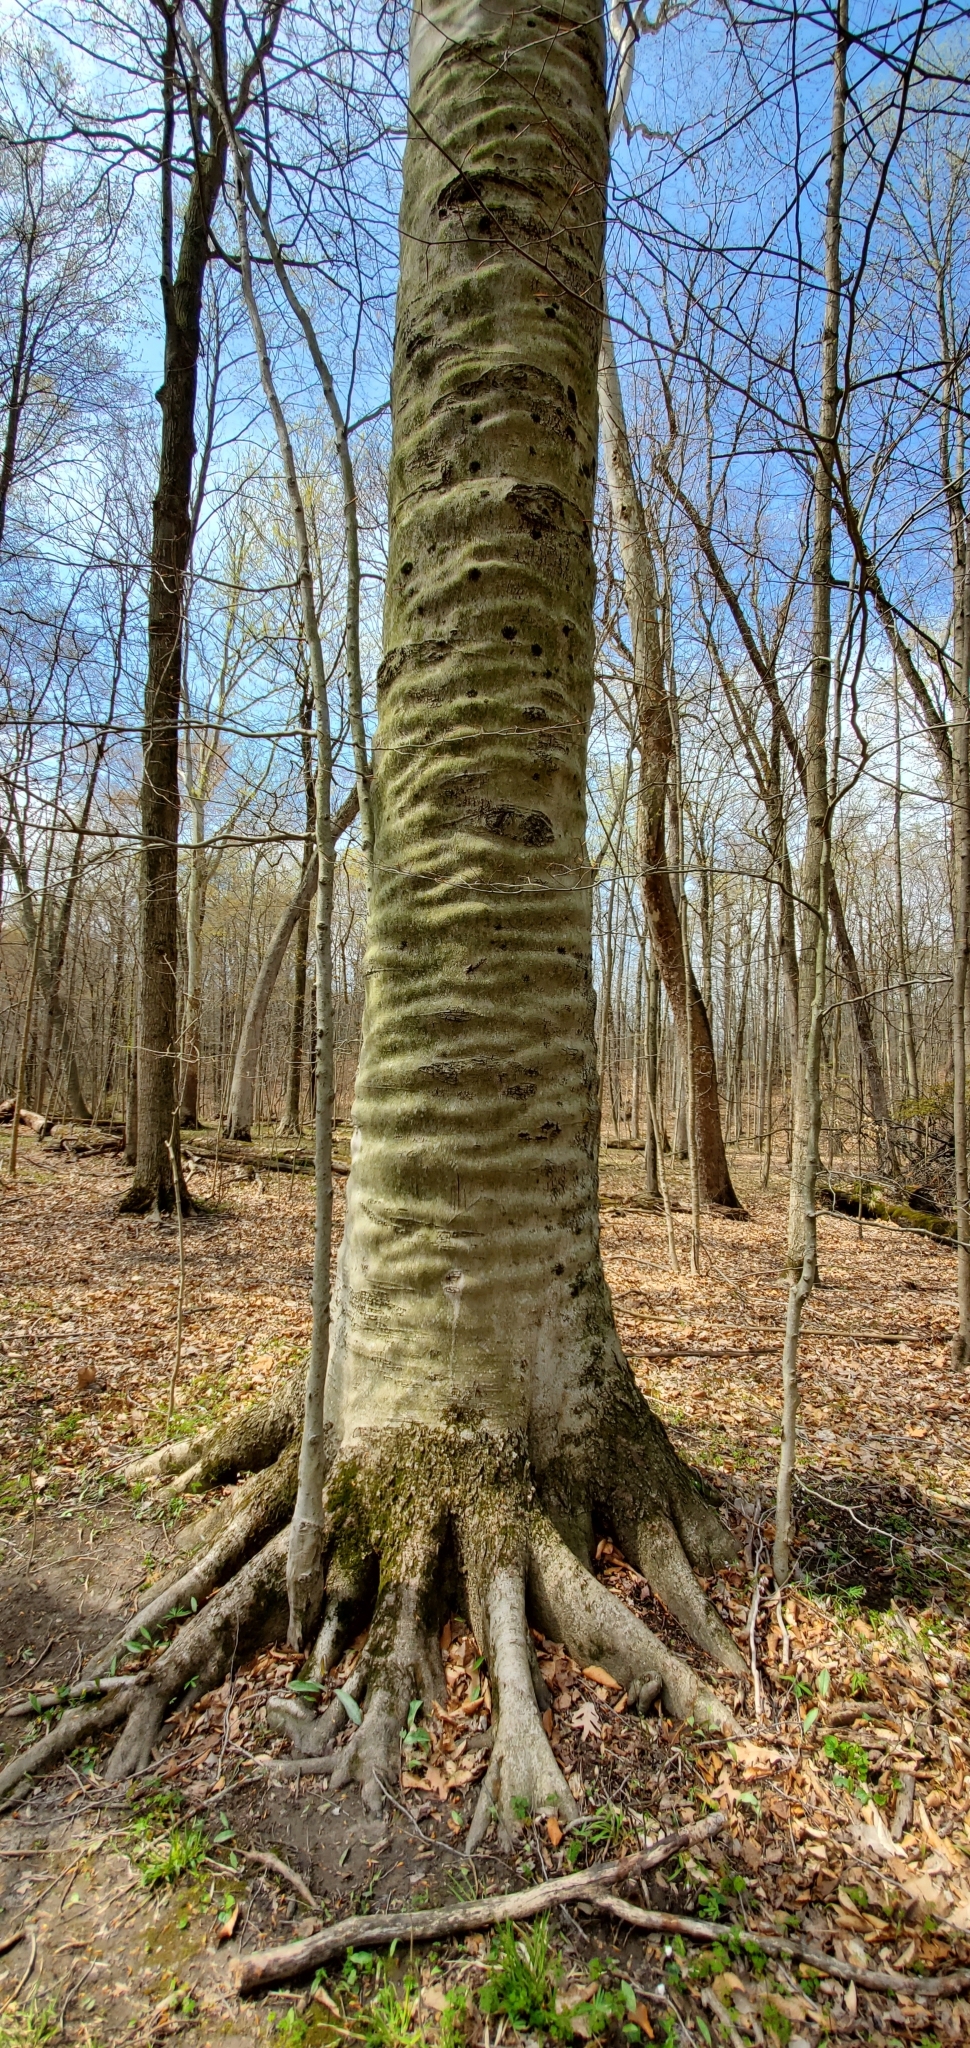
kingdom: Plantae
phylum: Tracheophyta
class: Magnoliopsida
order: Fagales
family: Fagaceae
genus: Fagus
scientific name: Fagus grandifolia
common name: American beech
